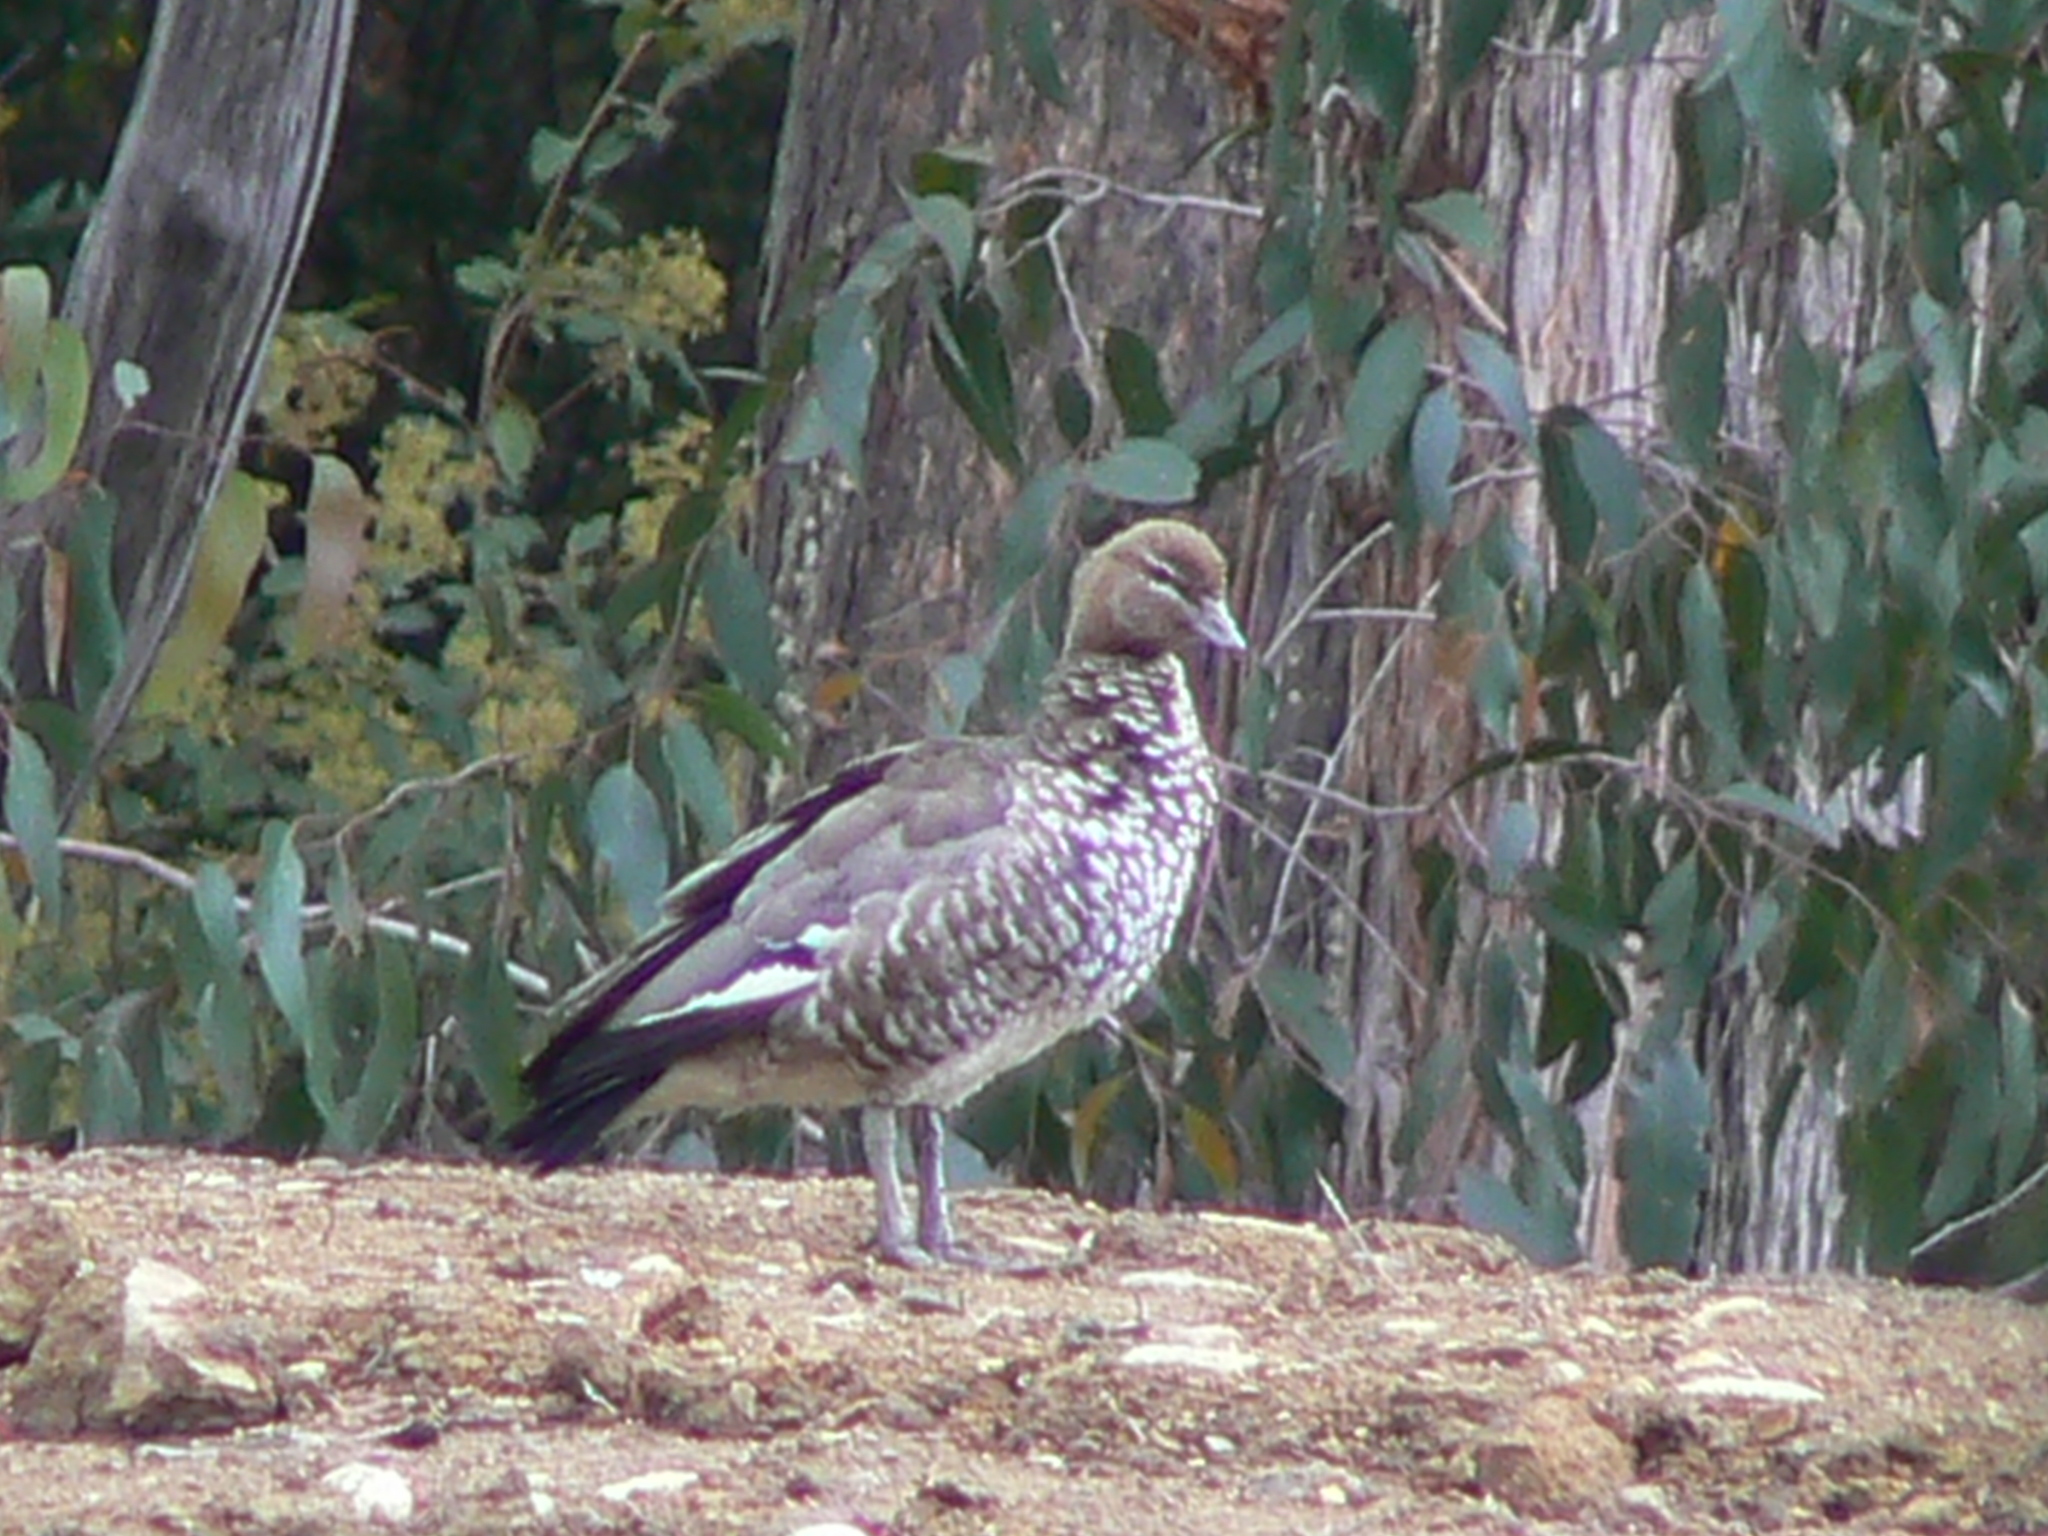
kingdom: Animalia
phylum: Chordata
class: Aves
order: Anseriformes
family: Anatidae
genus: Chenonetta
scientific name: Chenonetta jubata
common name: Maned duck
